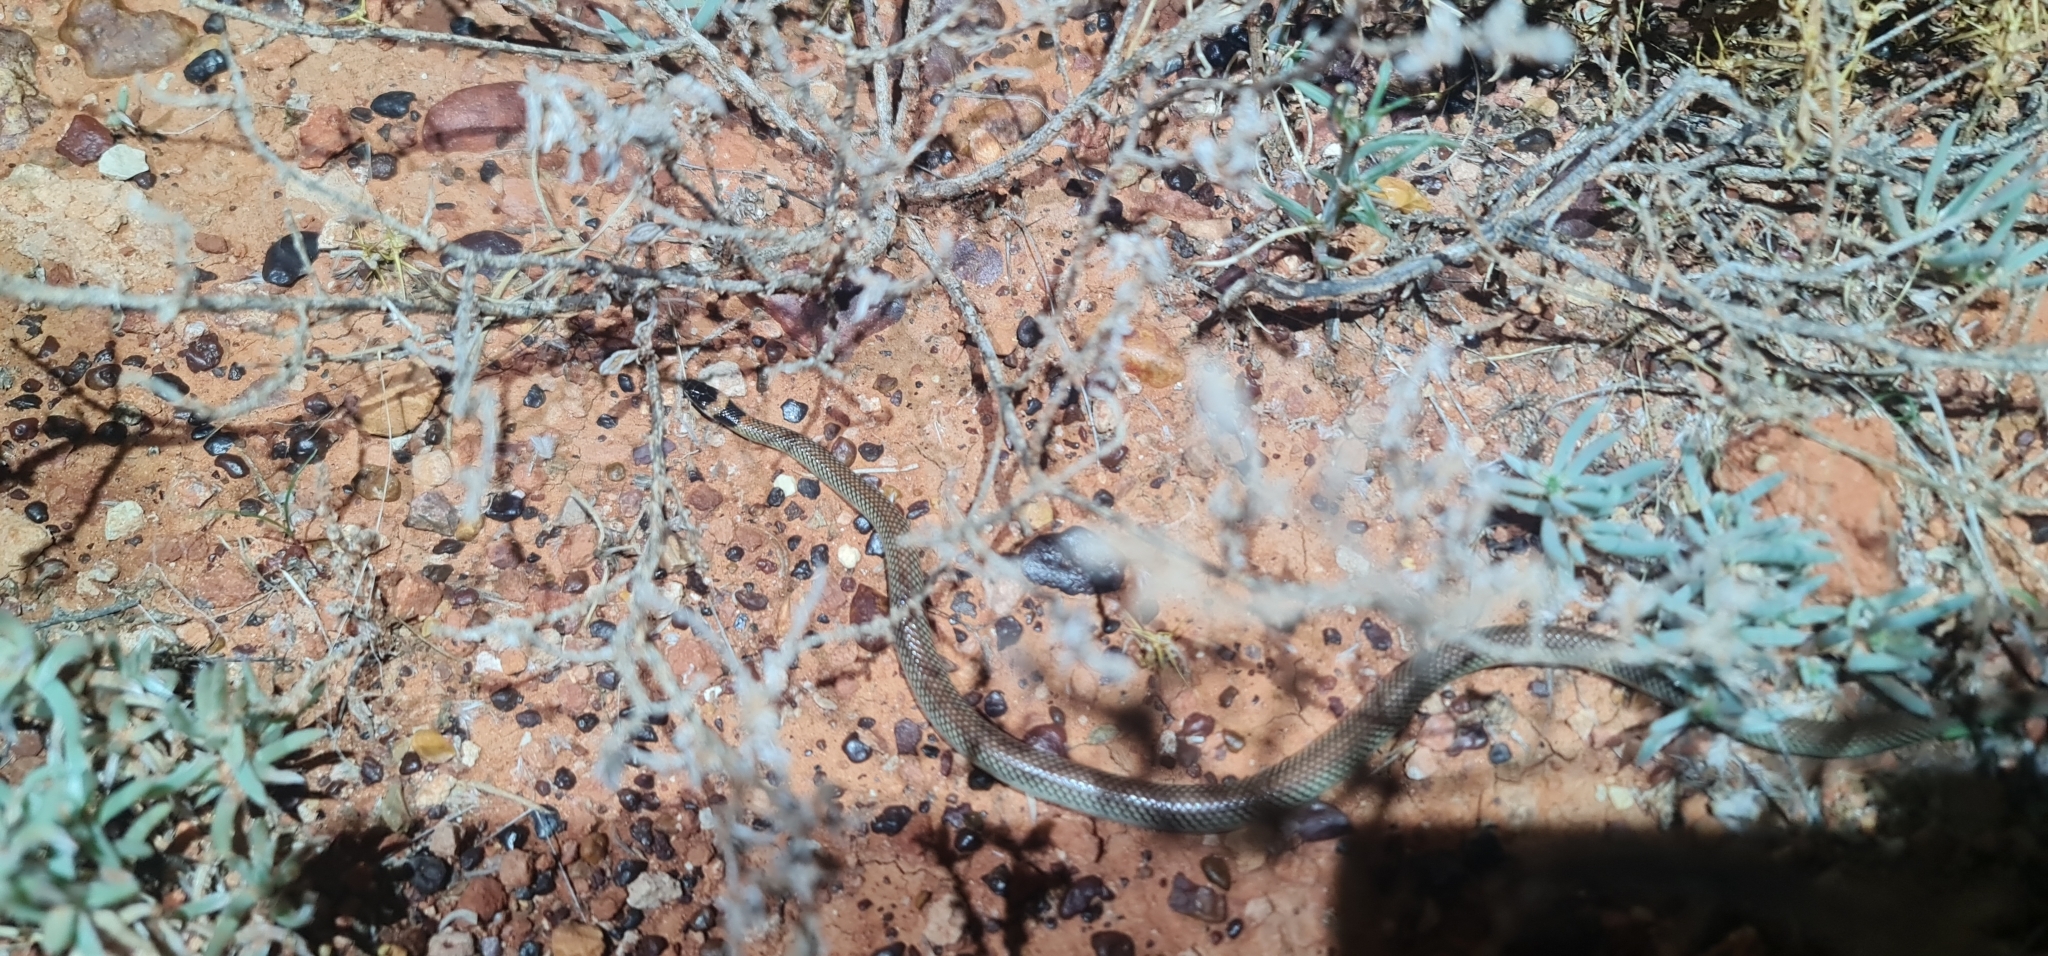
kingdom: Animalia
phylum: Chordata
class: Squamata
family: Elapidae
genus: Furina
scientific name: Furina ornata
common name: Orange-naped snake
